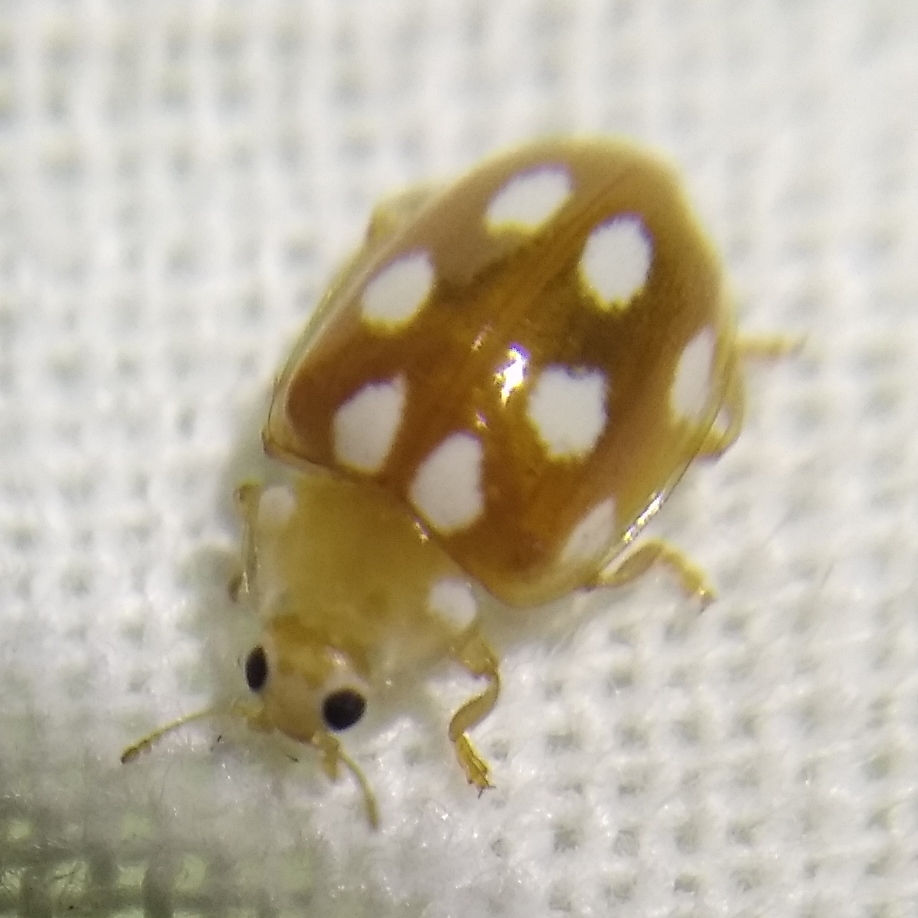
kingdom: Animalia
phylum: Arthropoda
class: Insecta
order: Coleoptera
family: Coccinellidae
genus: Vibidia
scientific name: Vibidia duodecimguttata
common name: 12-spot ladybird
